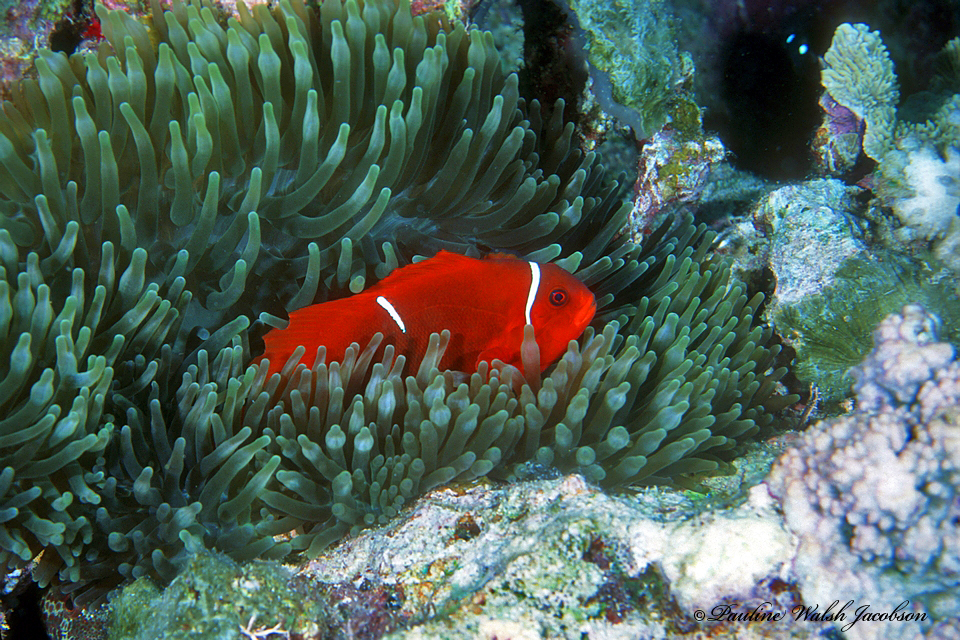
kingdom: Animalia
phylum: Chordata
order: Perciformes
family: Pomacentridae
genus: Premnas
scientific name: Premnas biaculeatus
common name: Spinecheek anemonefish
